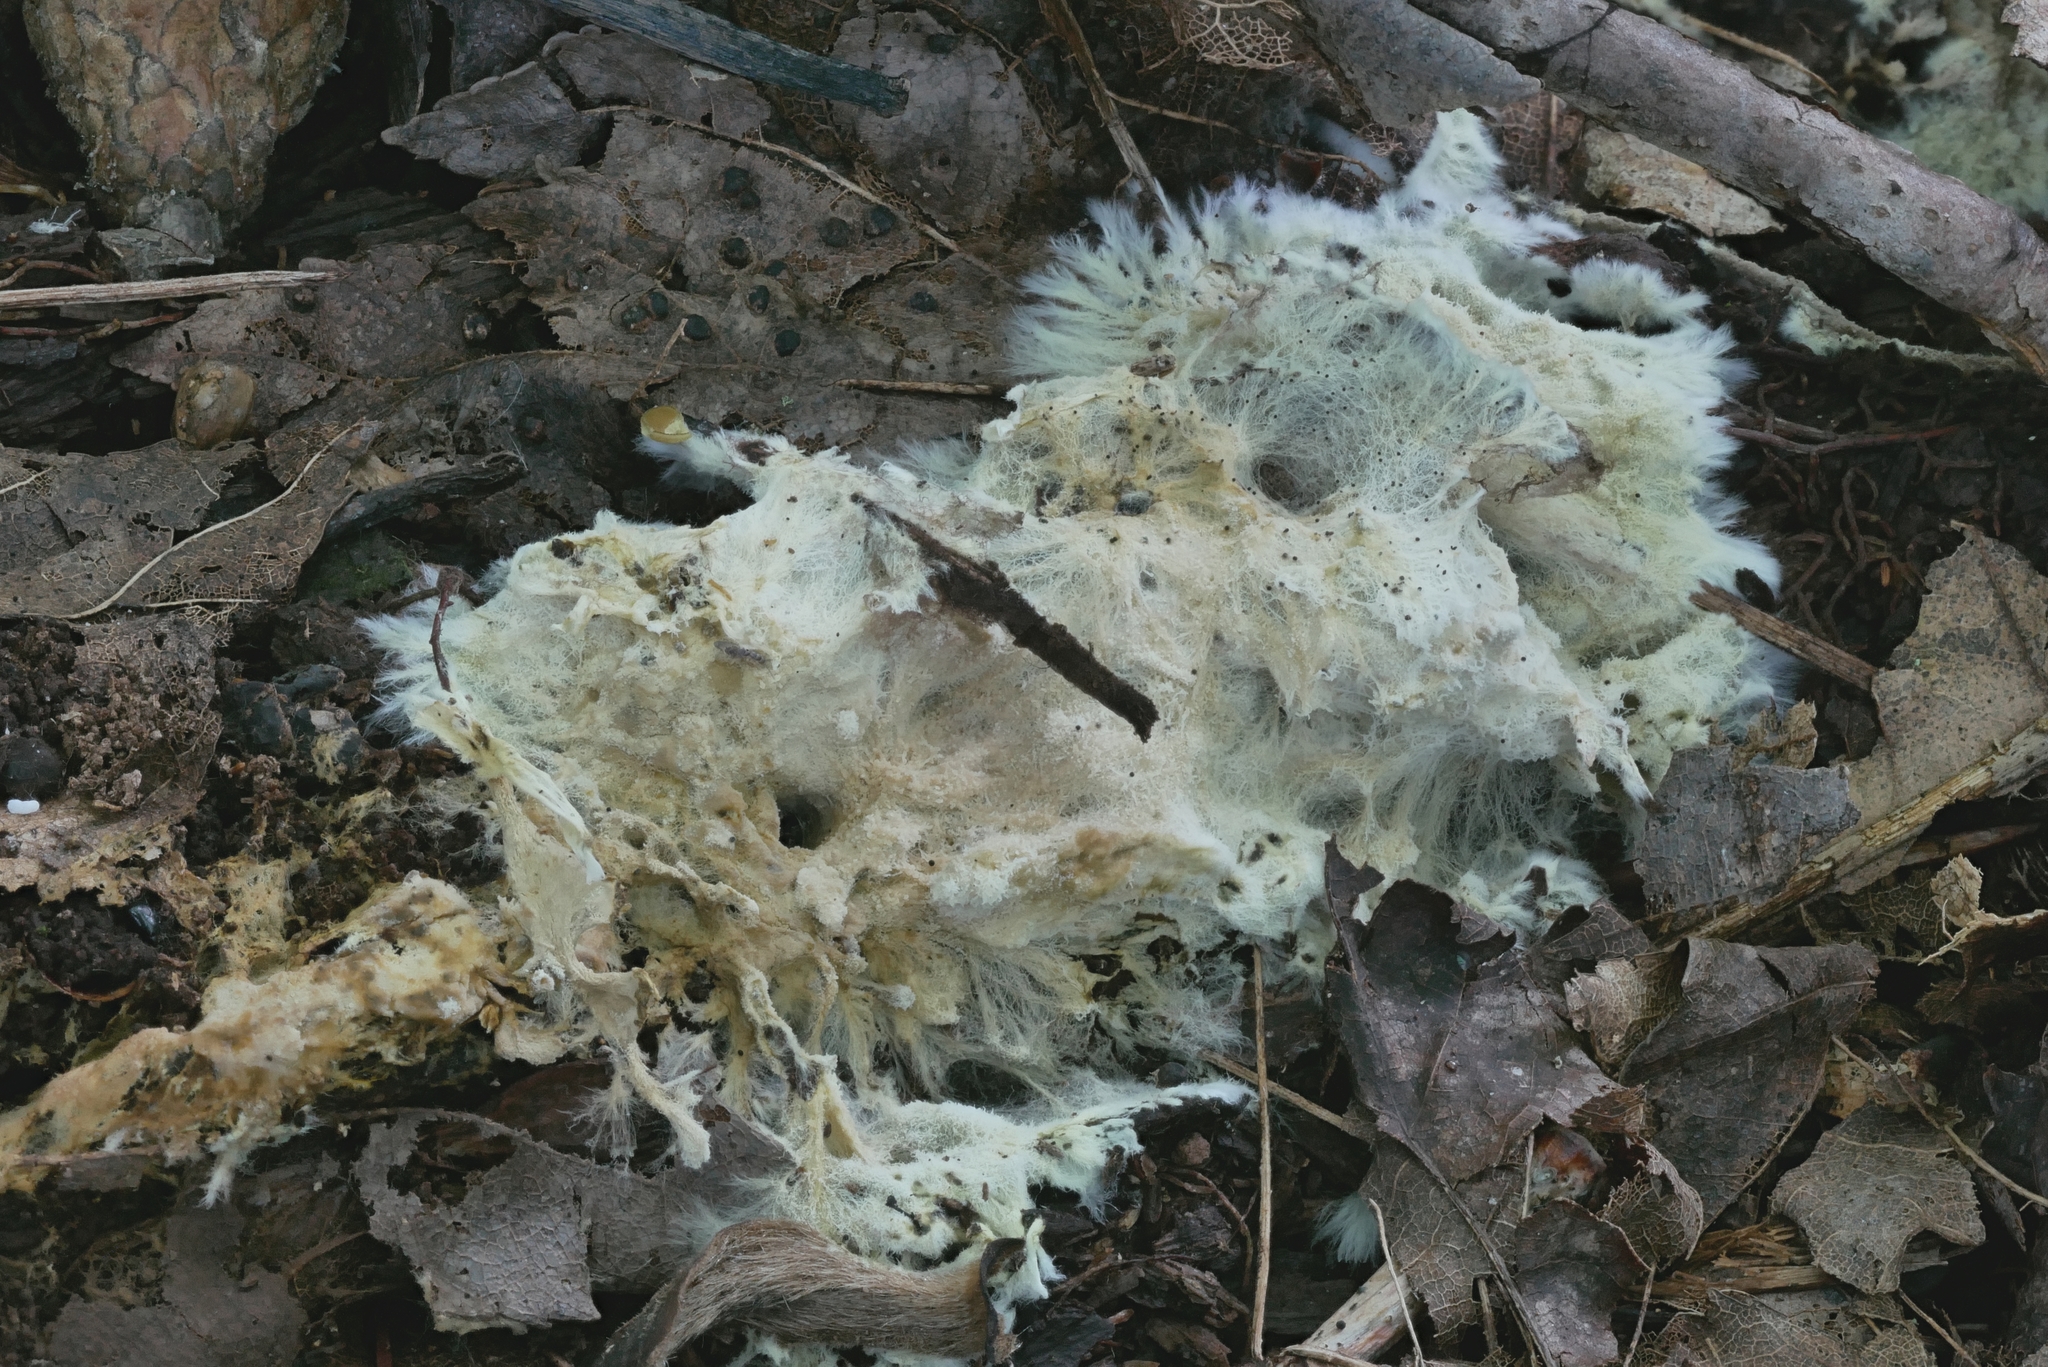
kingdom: Fungi
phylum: Basidiomycota
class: Agaricomycetes
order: Russulales
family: Xenasmataceae
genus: Xenasmatella
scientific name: Xenasmatella vaga
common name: Yellow cobweb
